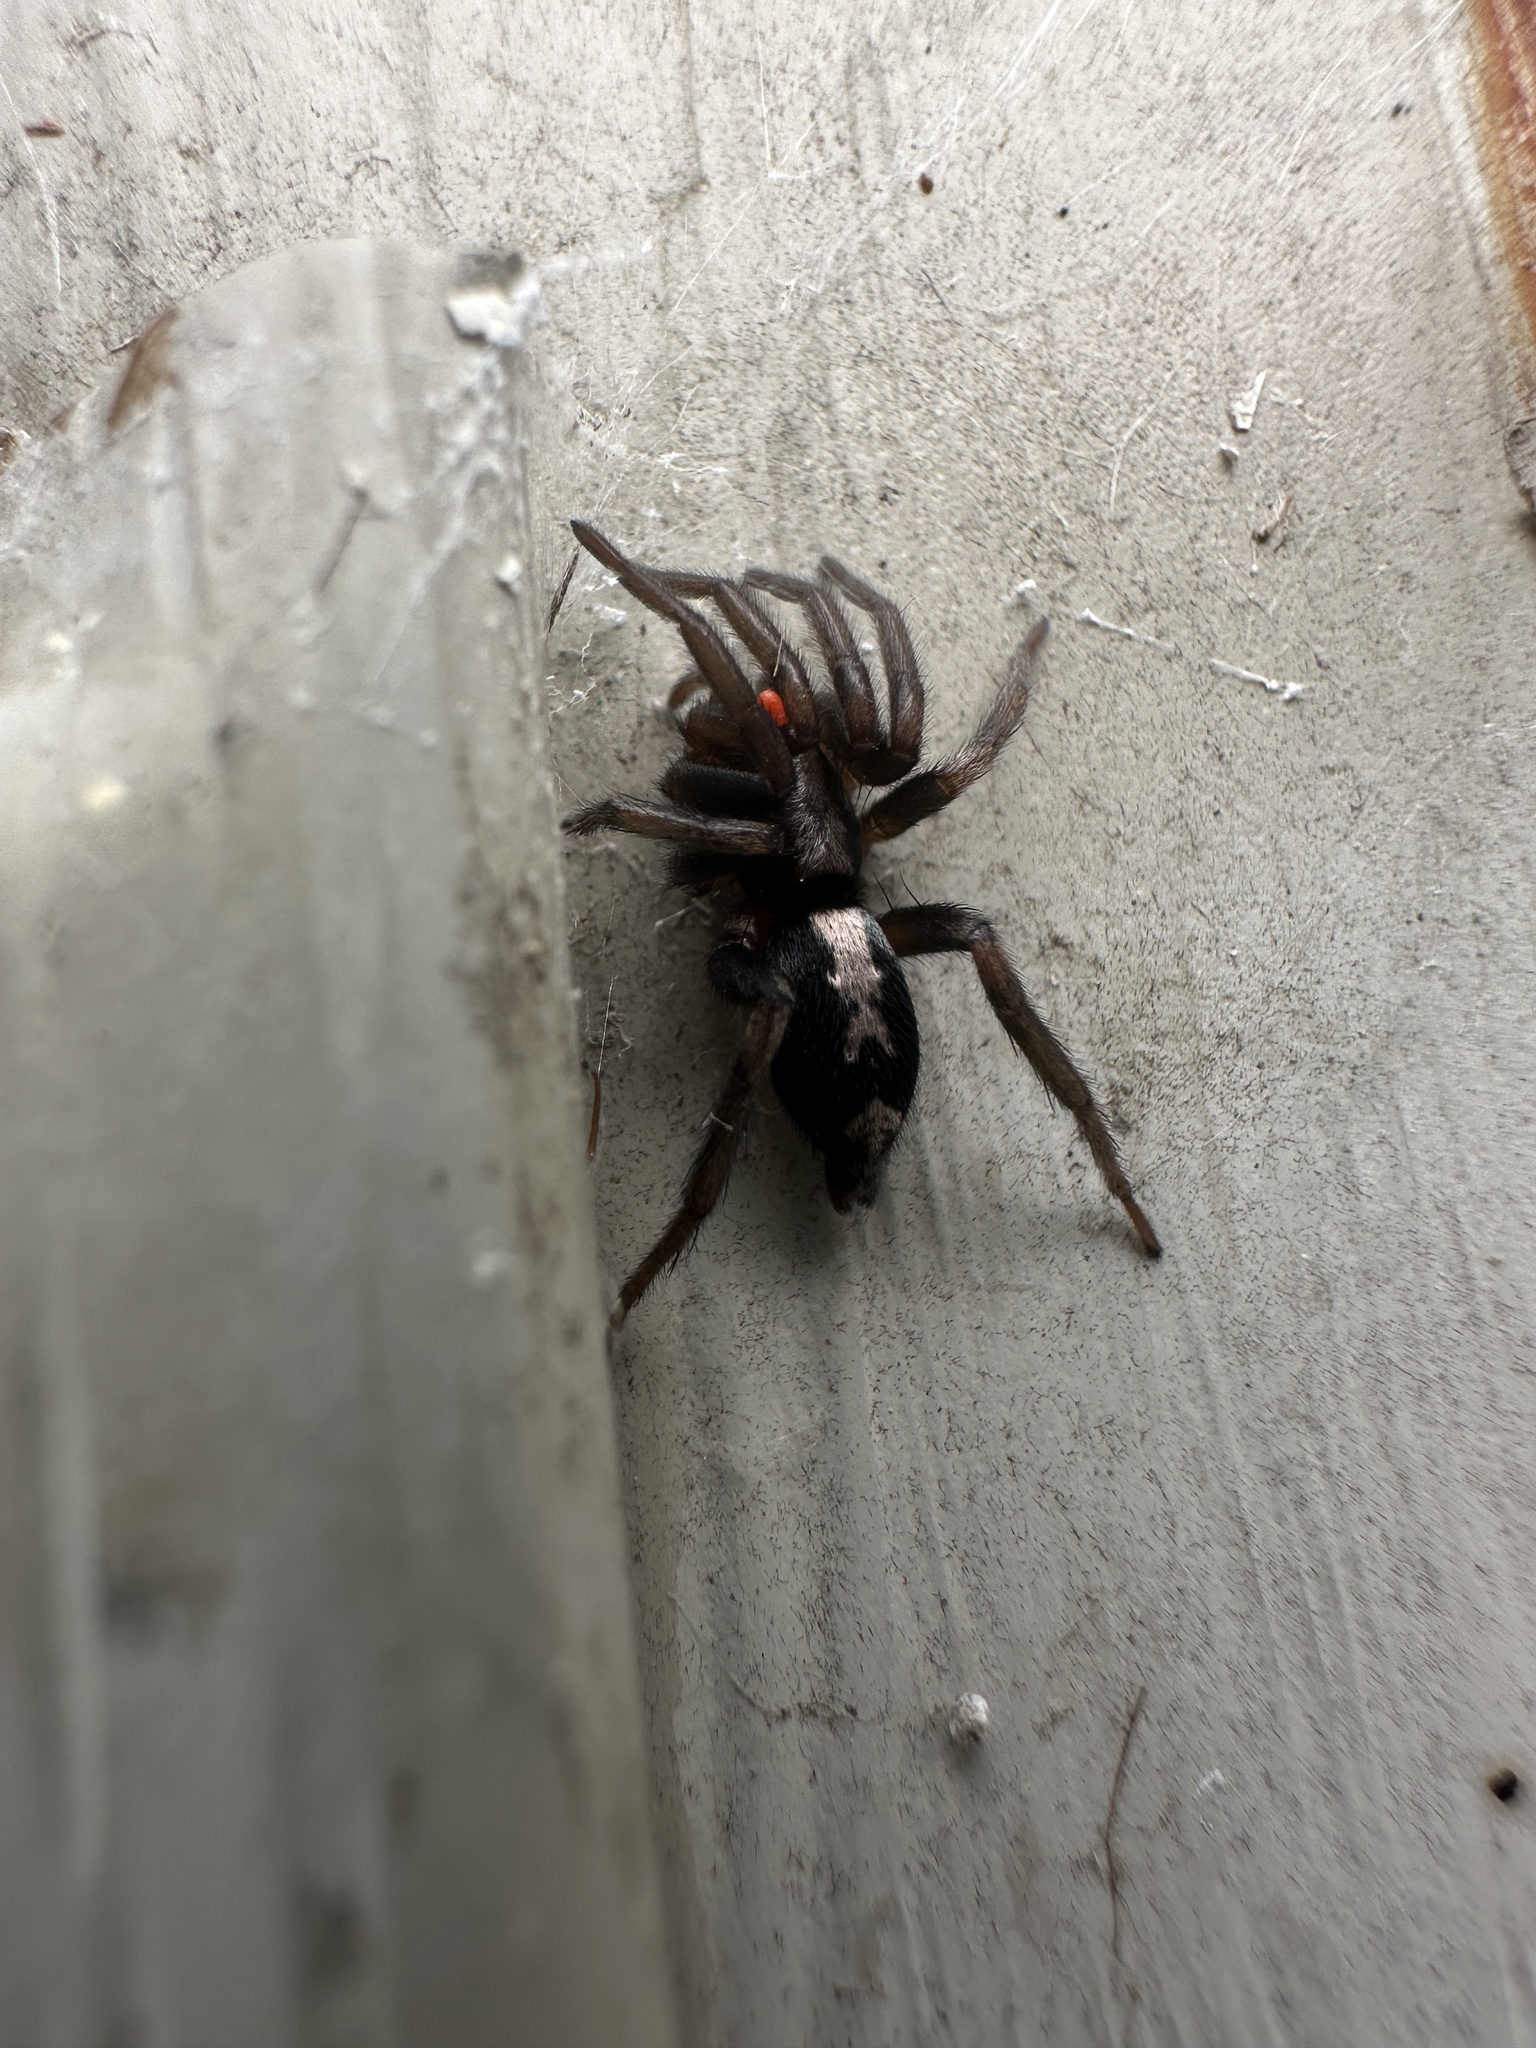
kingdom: Animalia
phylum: Arthropoda
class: Arachnida
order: Araneae
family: Gnaphosidae
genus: Herpyllus
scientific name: Herpyllus ecclesiasticus
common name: Eastern parson spider
